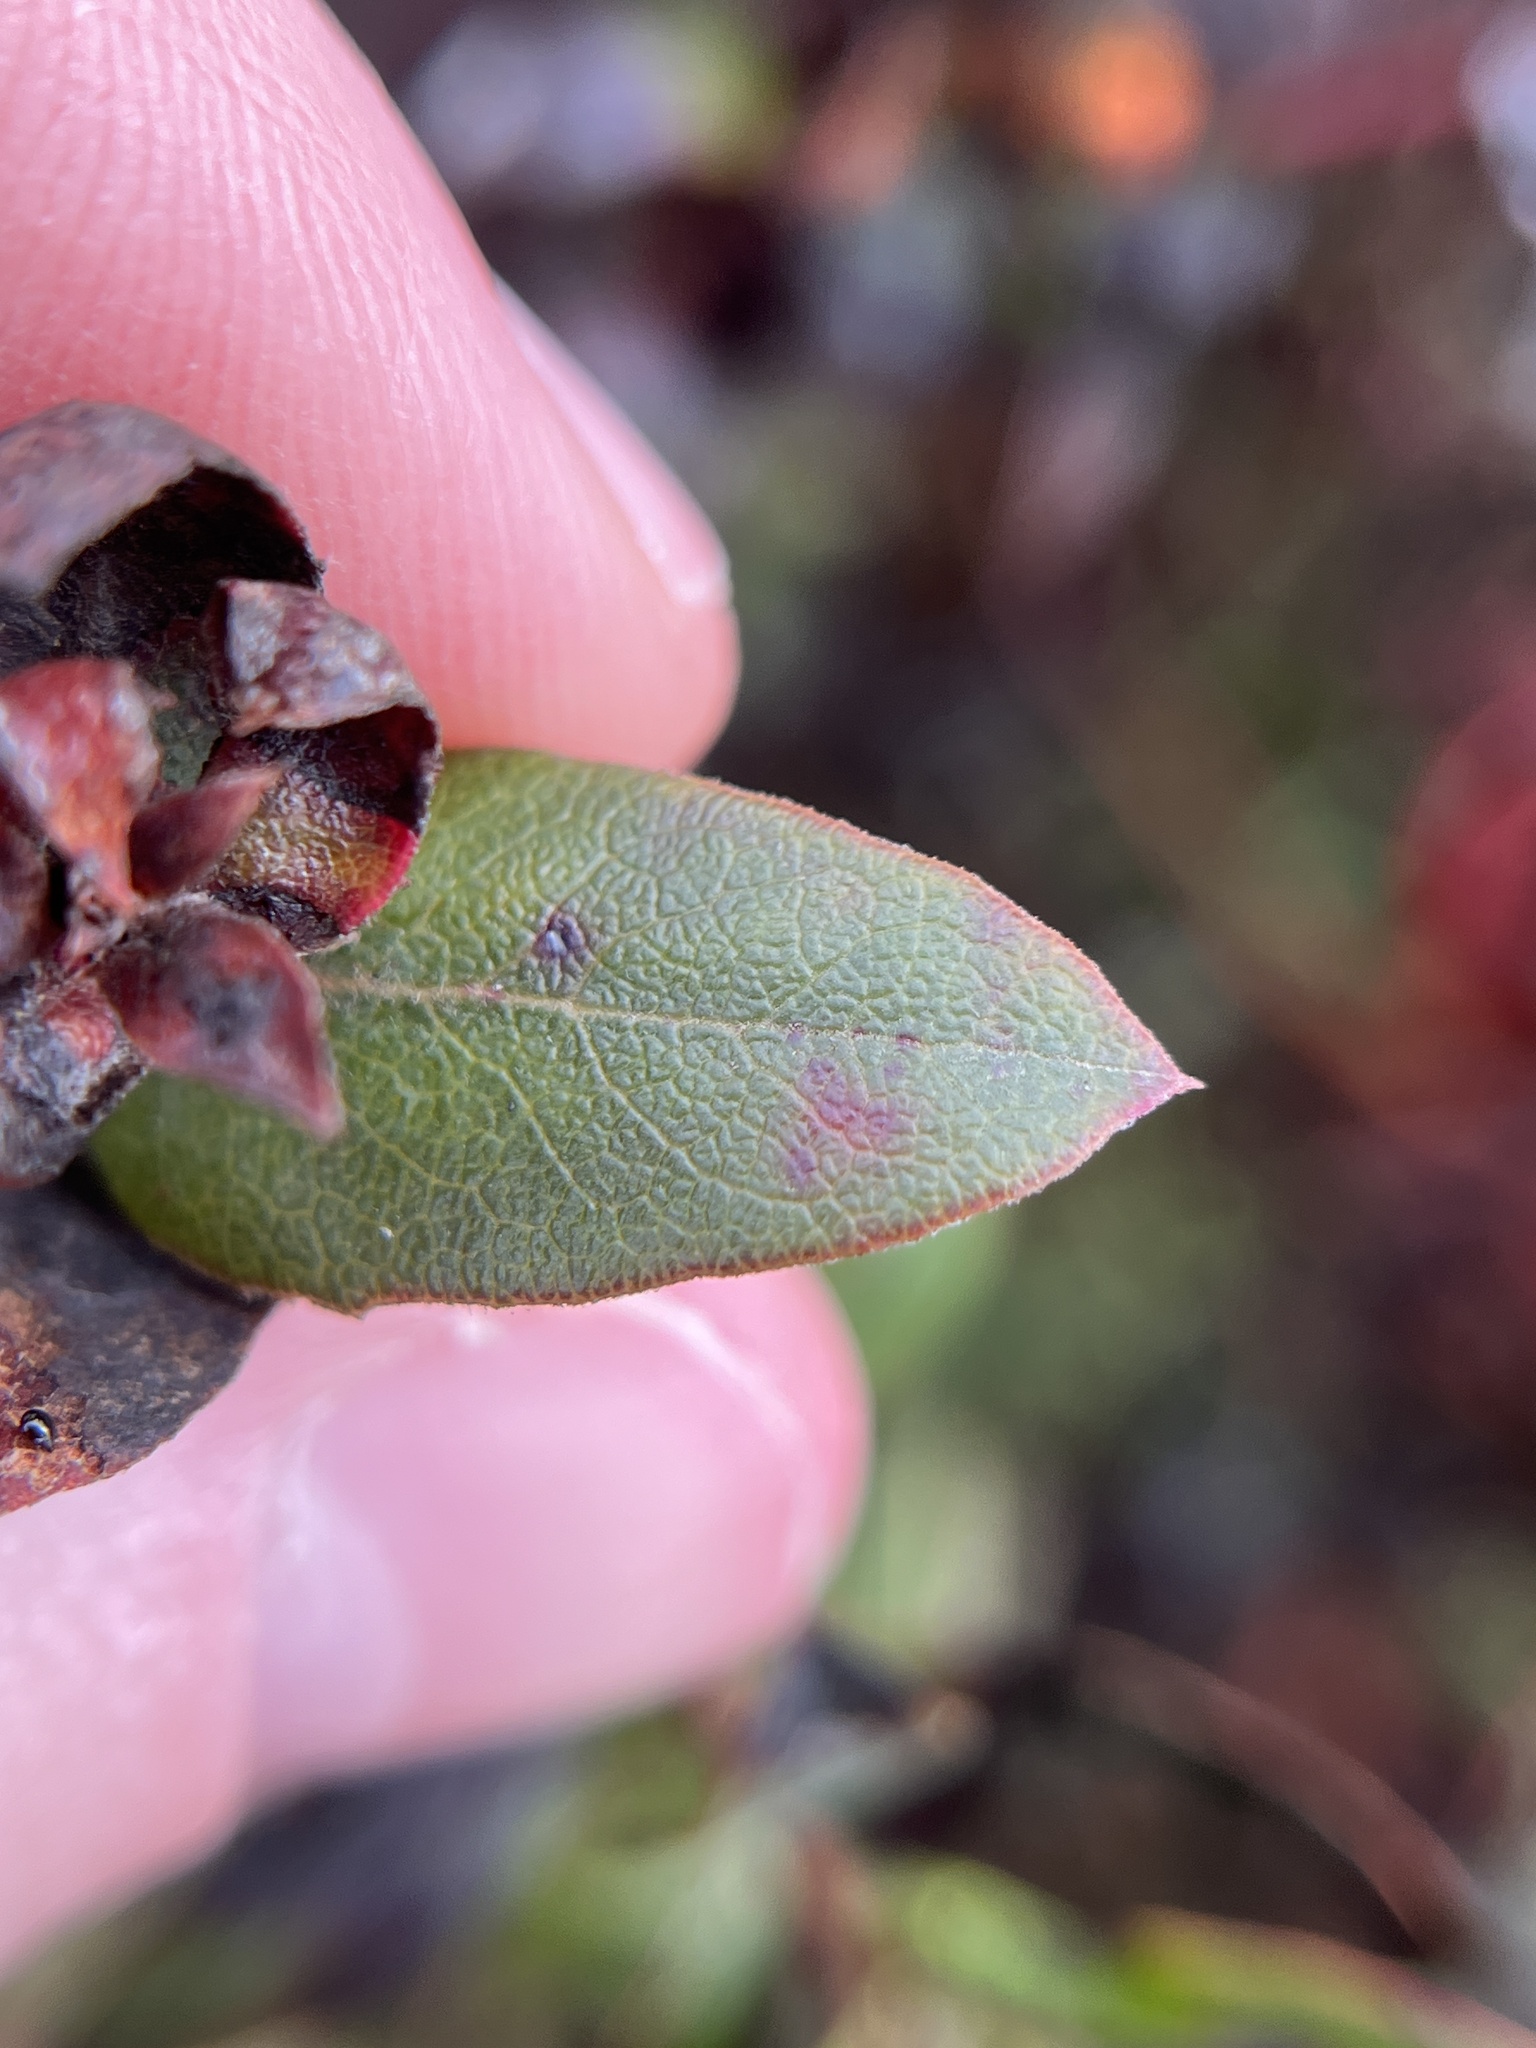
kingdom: Plantae
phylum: Tracheophyta
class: Magnoliopsida
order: Ericales
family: Ericaceae
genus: Arctostaphylos
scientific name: Arctostaphylos pajaroensis
